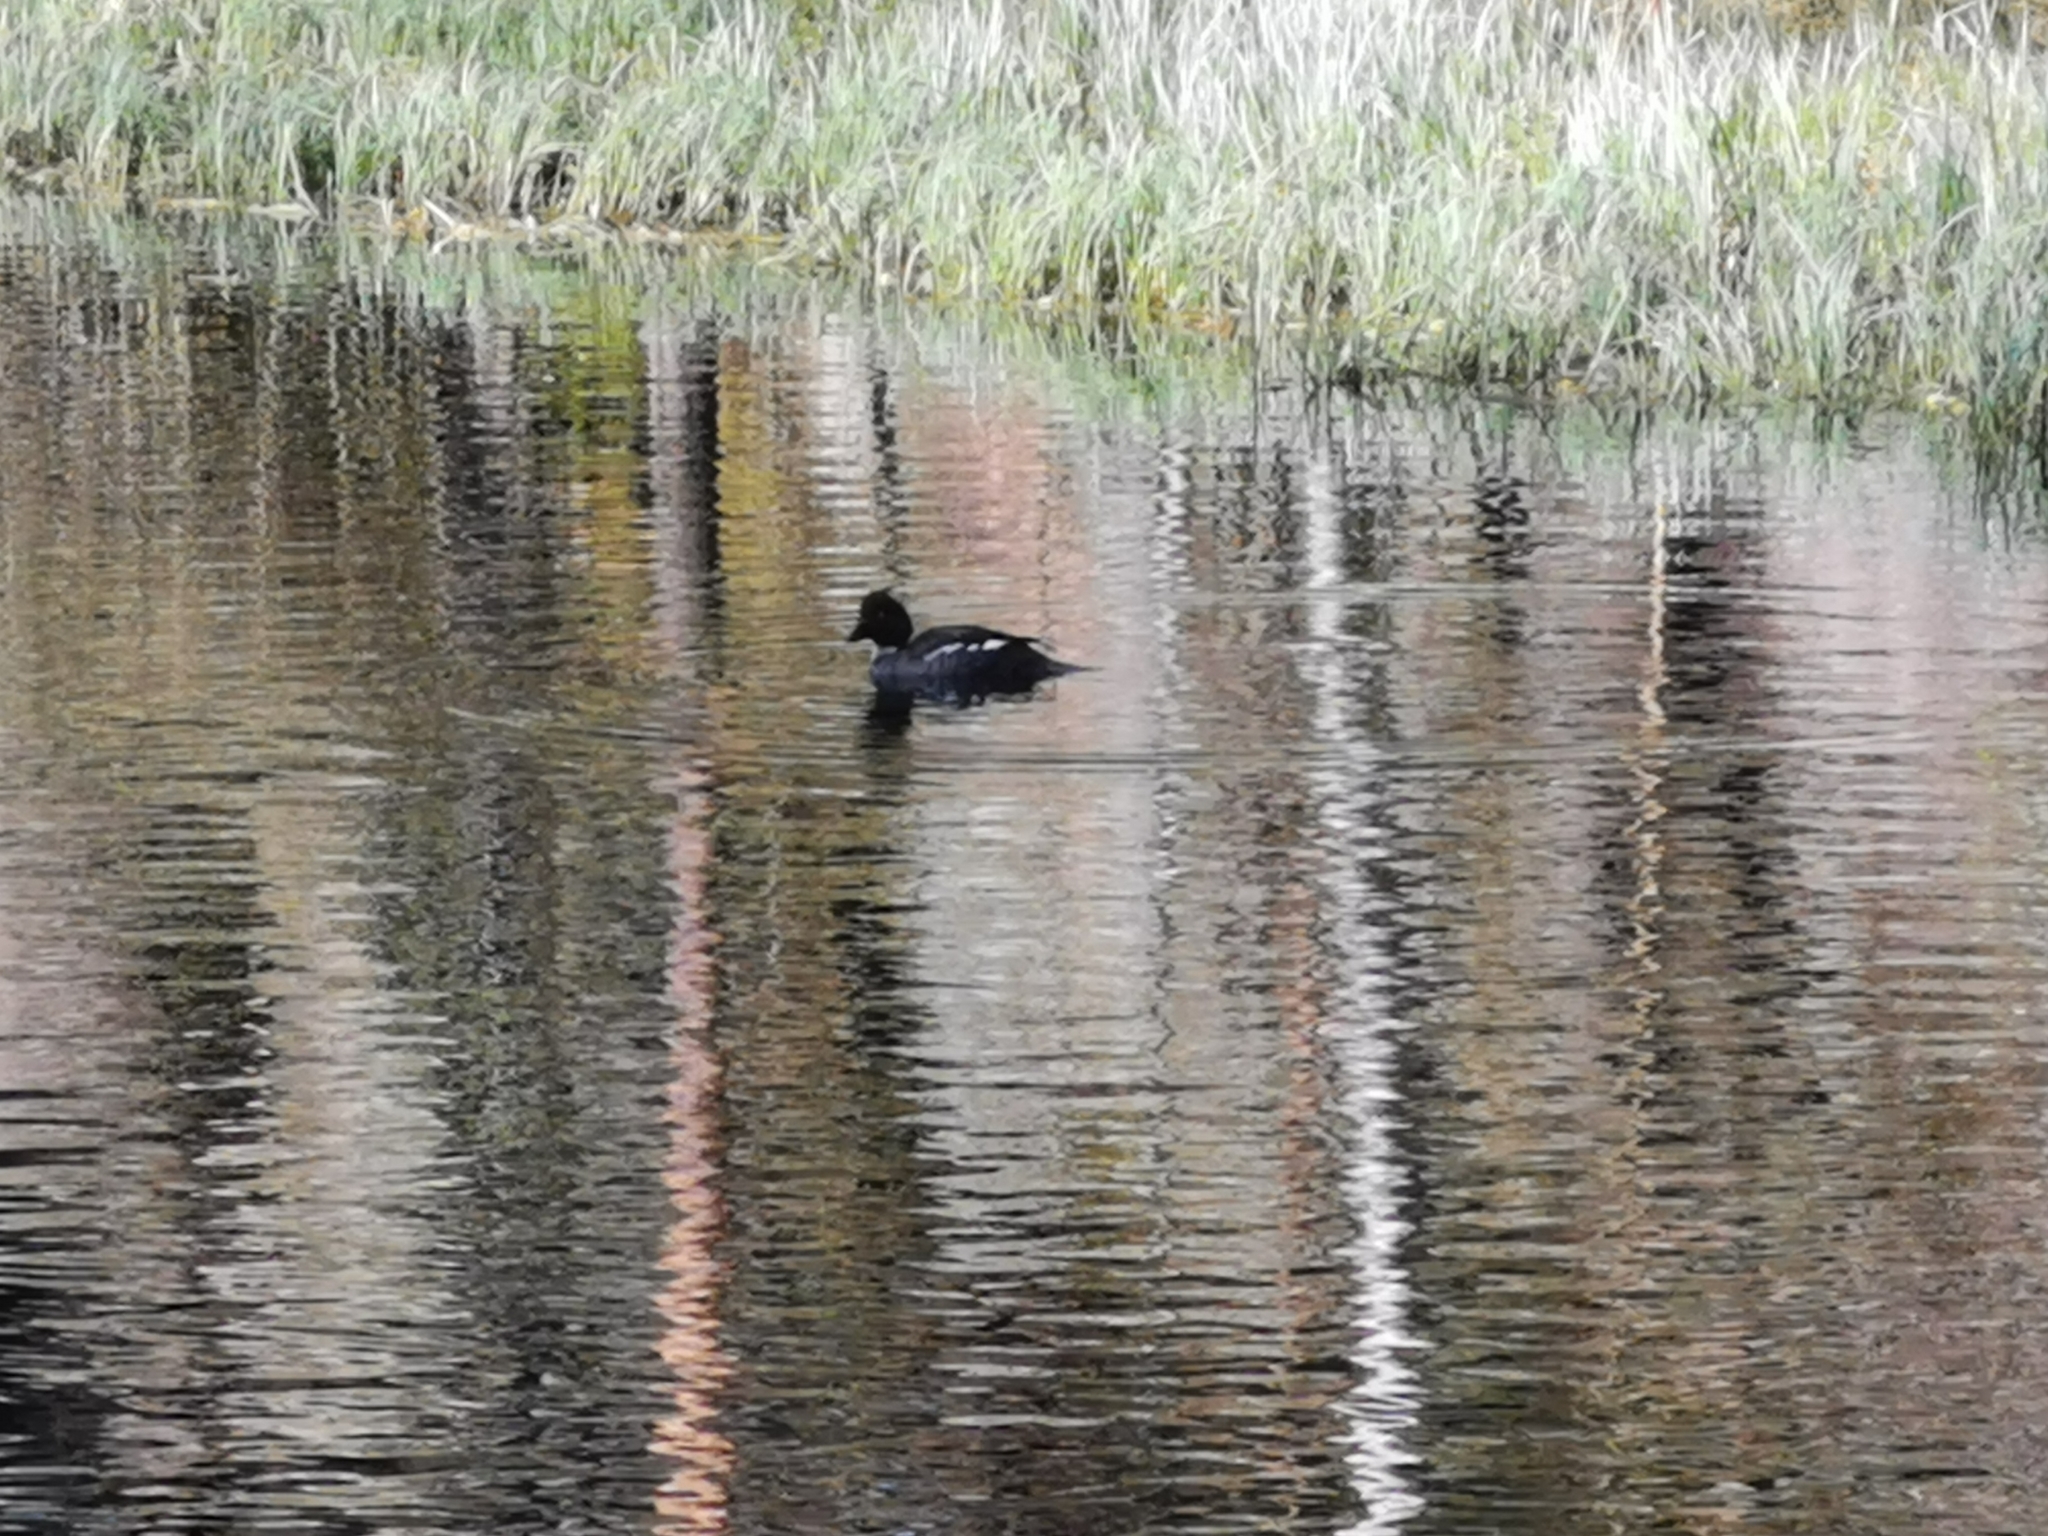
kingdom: Animalia
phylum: Chordata
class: Aves
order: Anseriformes
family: Anatidae
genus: Bucephala
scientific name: Bucephala clangula
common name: Common goldeneye
